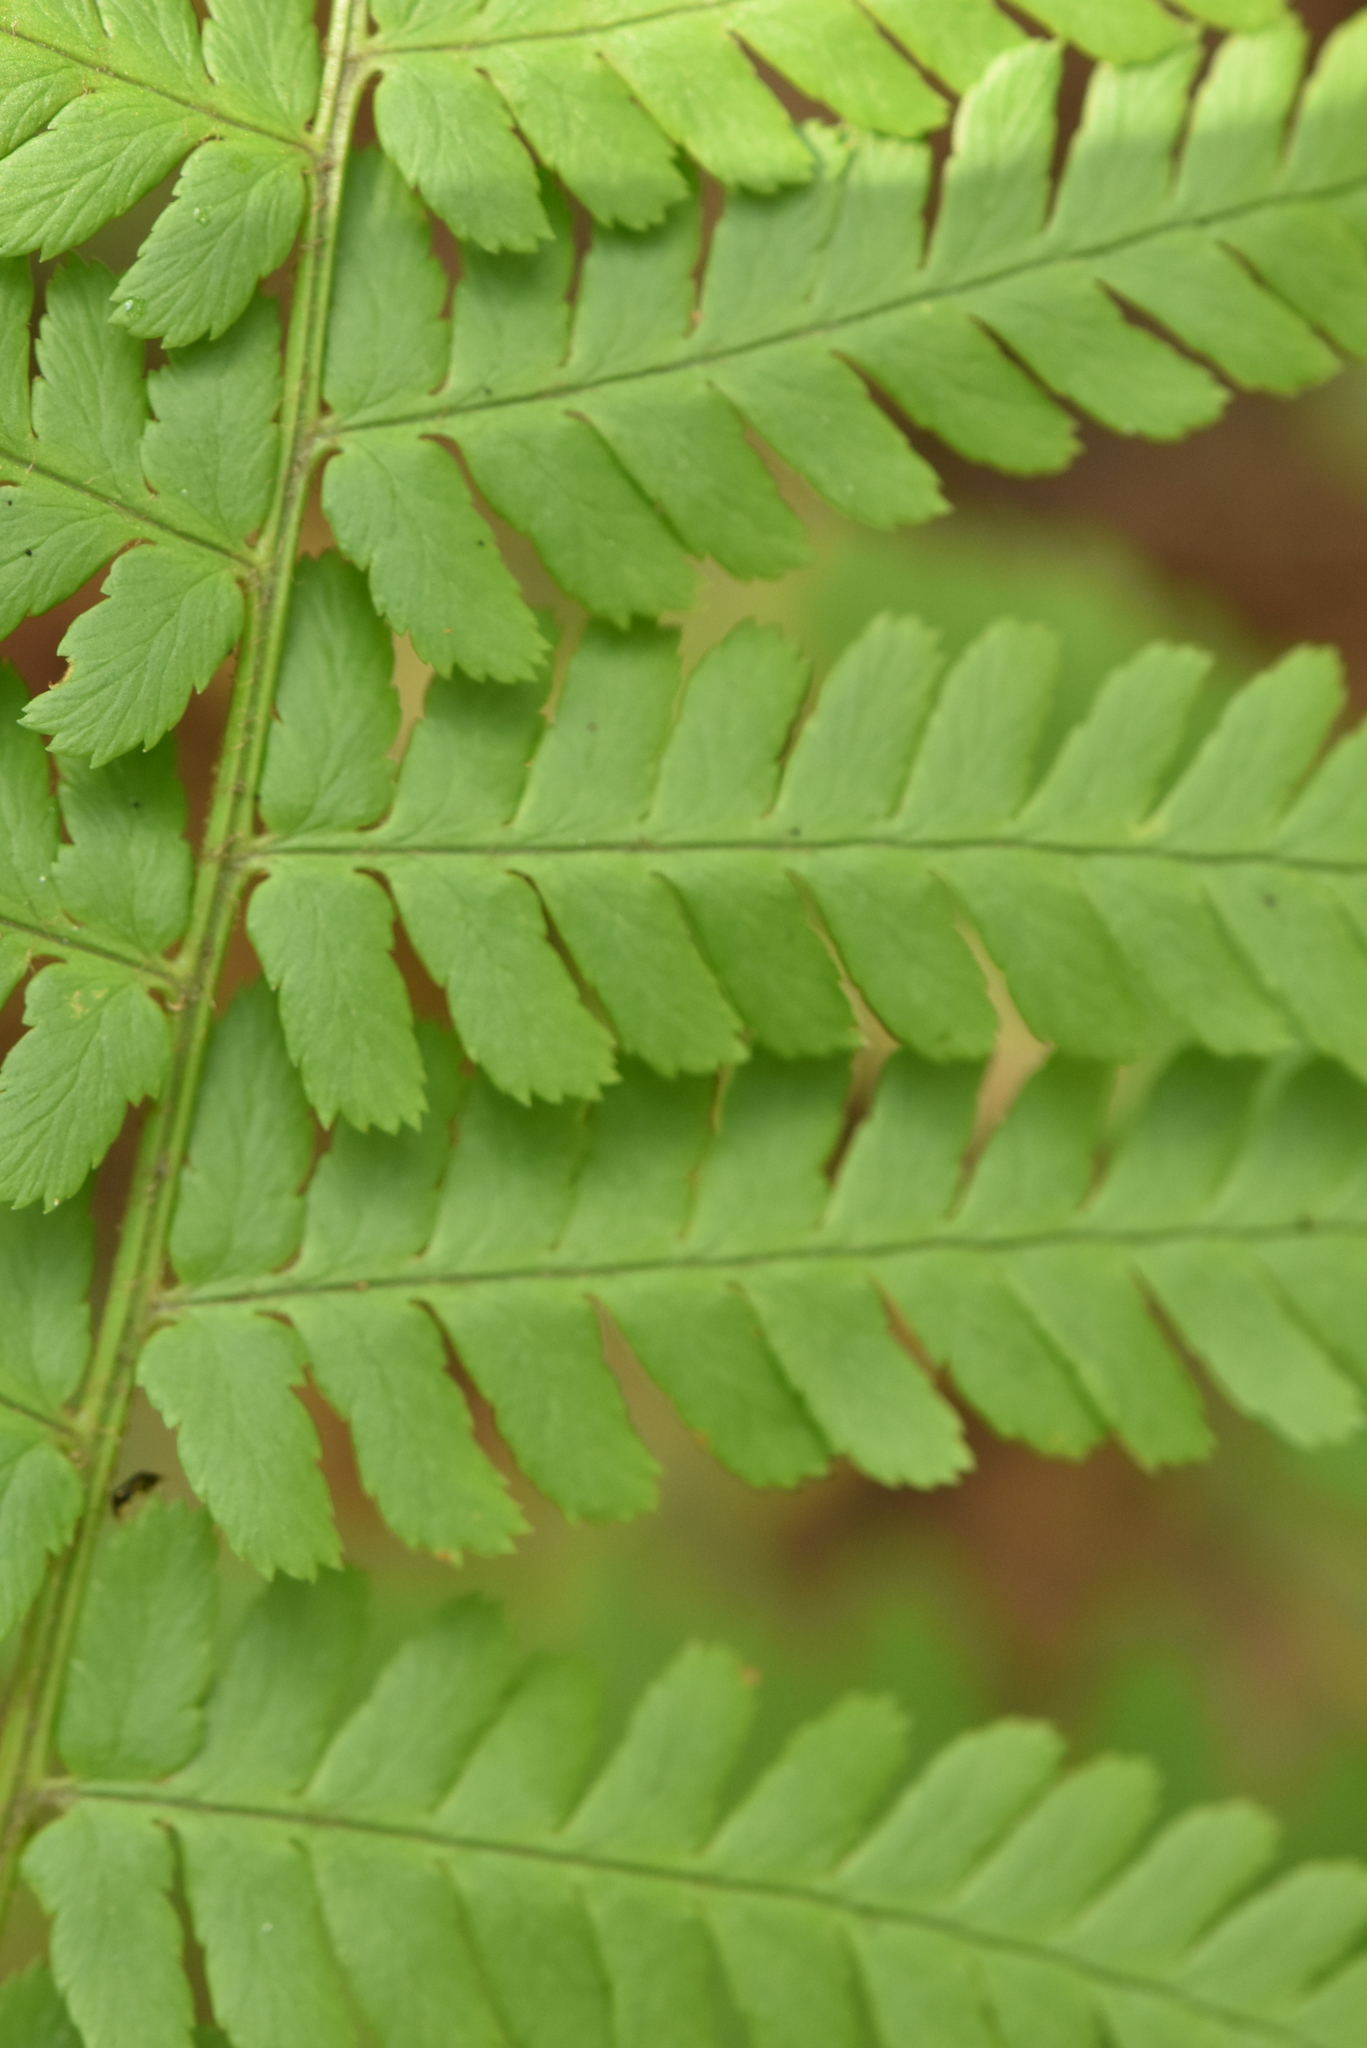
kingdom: Plantae
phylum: Tracheophyta
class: Polypodiopsida
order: Polypodiales
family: Dryopteridaceae
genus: Dryopteris
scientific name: Dryopteris filix-mas
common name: Male fern
